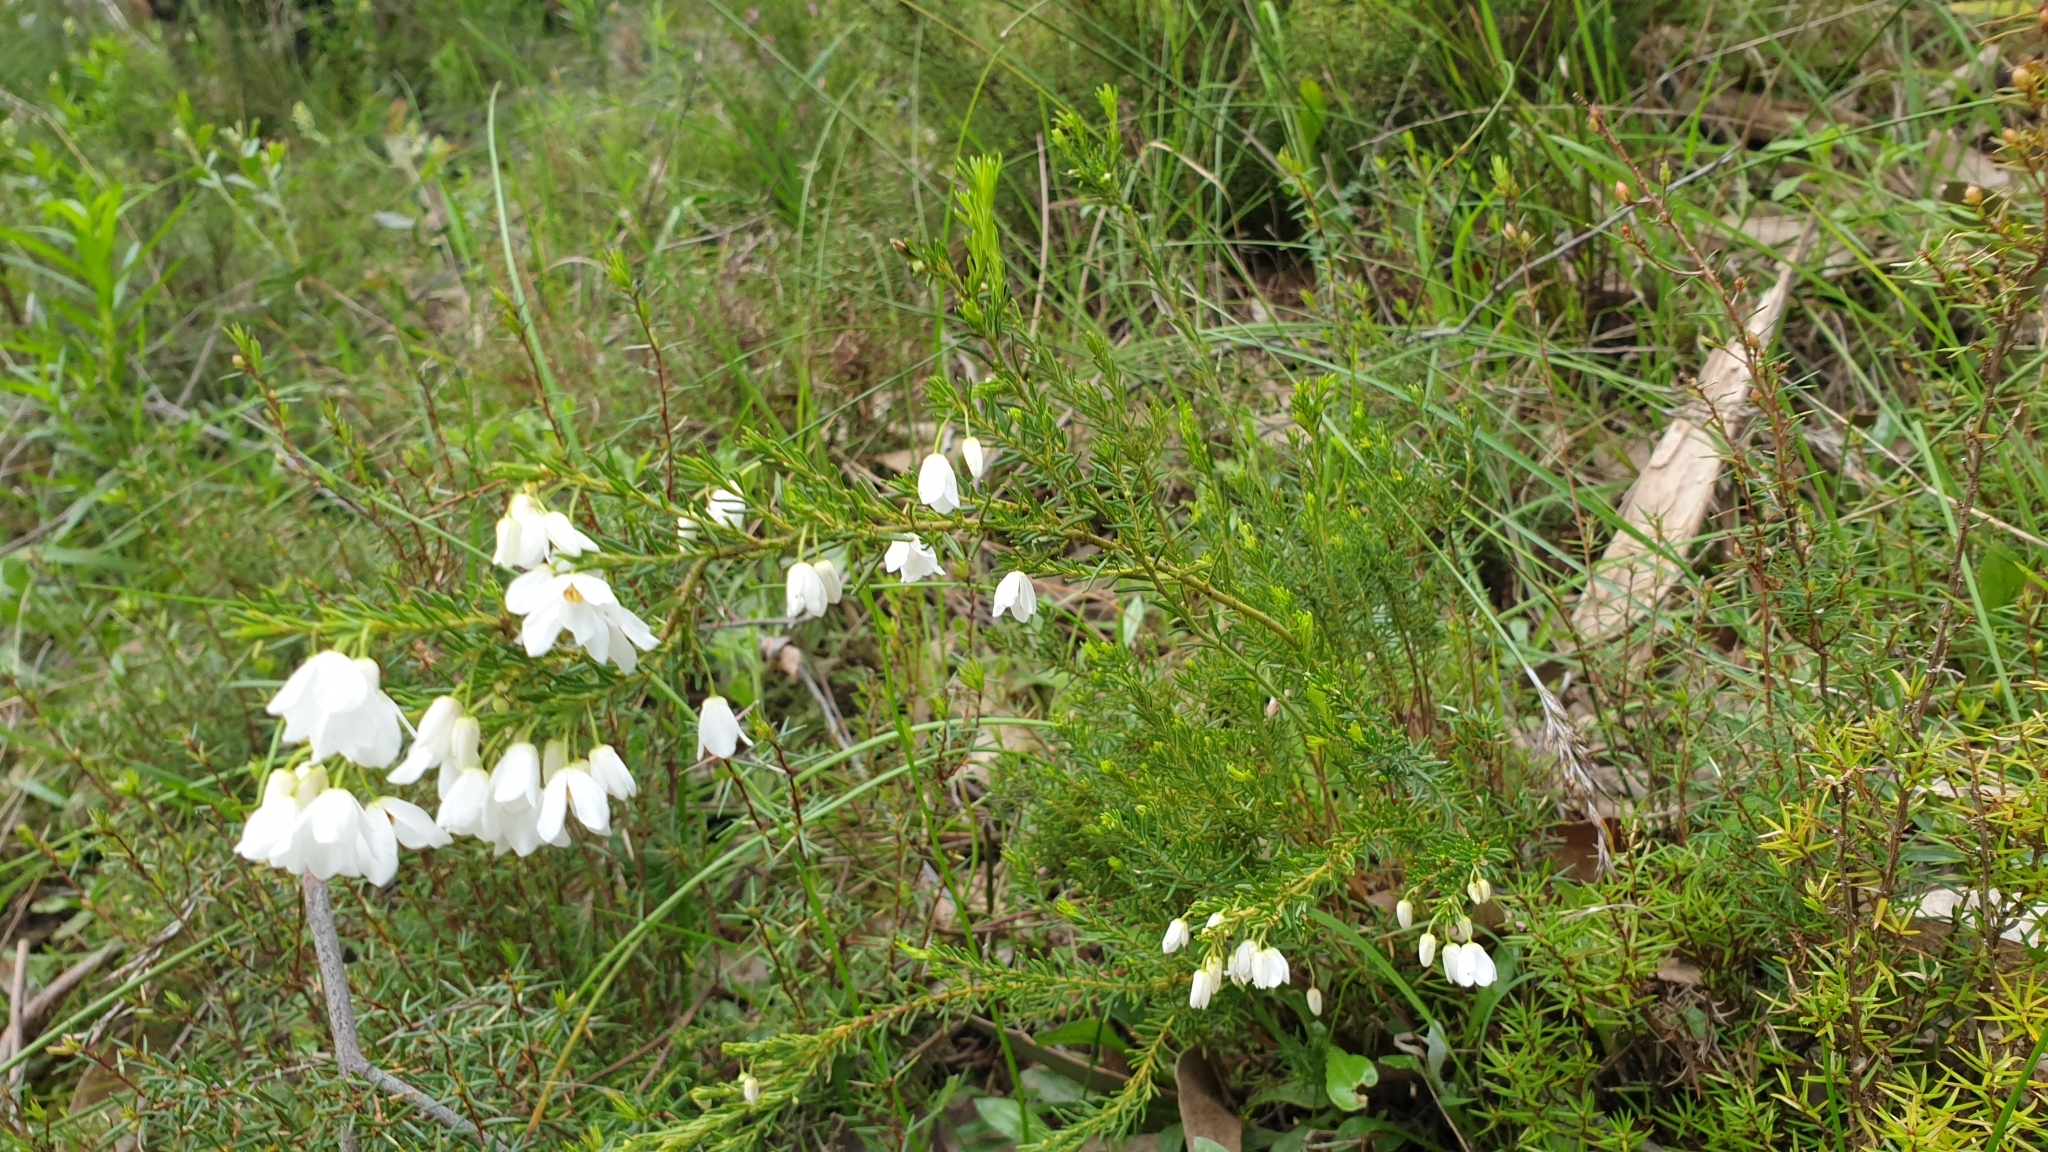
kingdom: Plantae
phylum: Tracheophyta
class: Magnoliopsida
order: Oxalidales
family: Elaeocarpaceae
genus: Tetratheca
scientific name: Tetratheca pilosa
